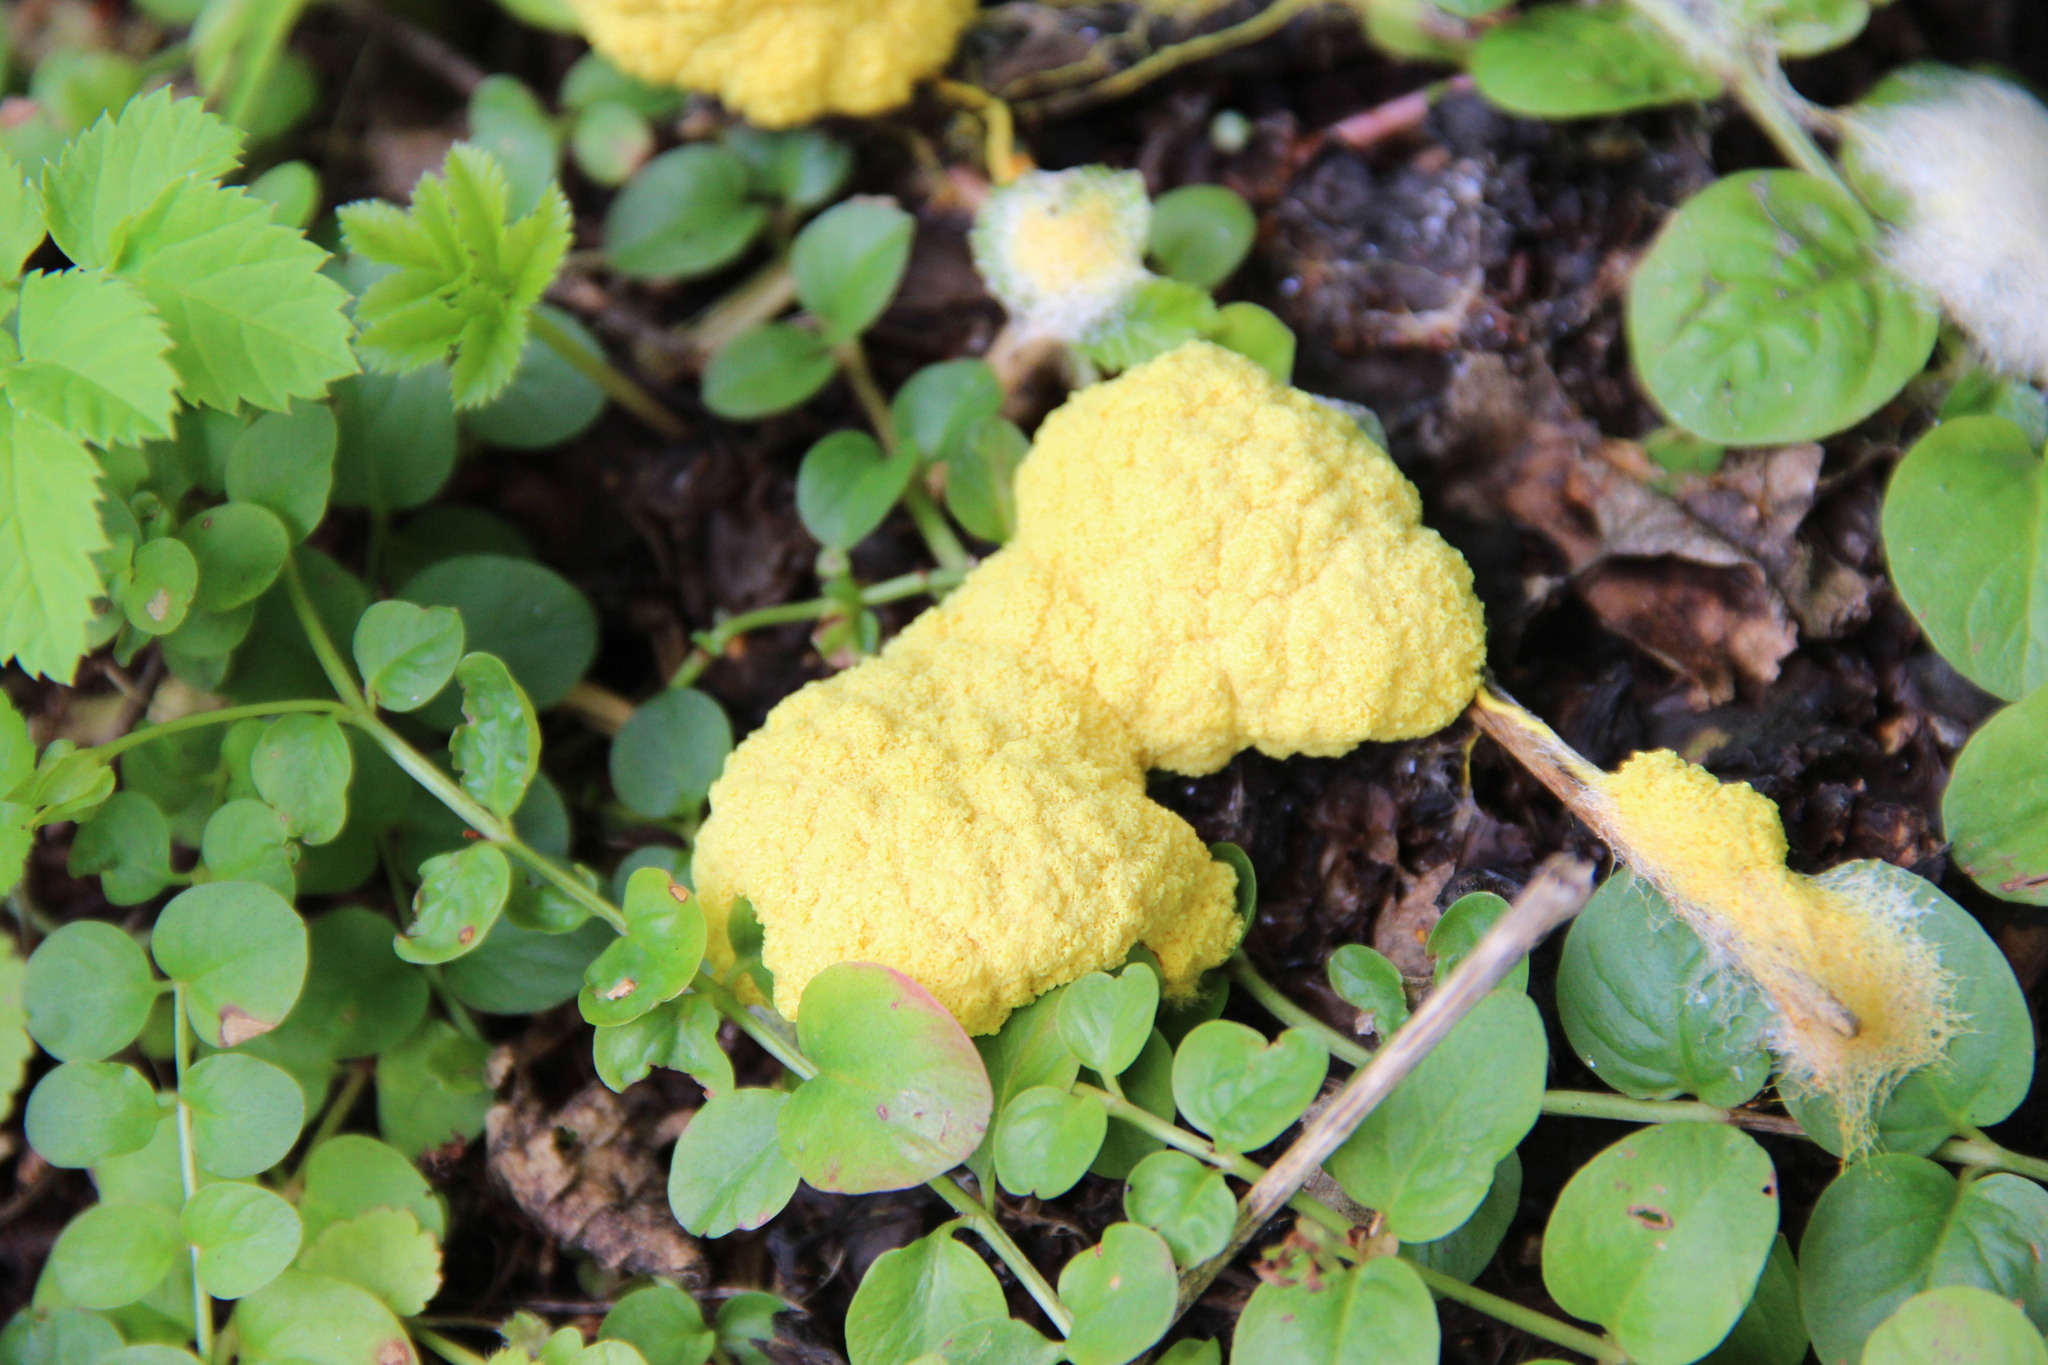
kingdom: Protozoa
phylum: Mycetozoa
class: Myxomycetes
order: Physarales
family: Physaraceae
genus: Fuligo
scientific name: Fuligo septica
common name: Dog vomit slime mold
